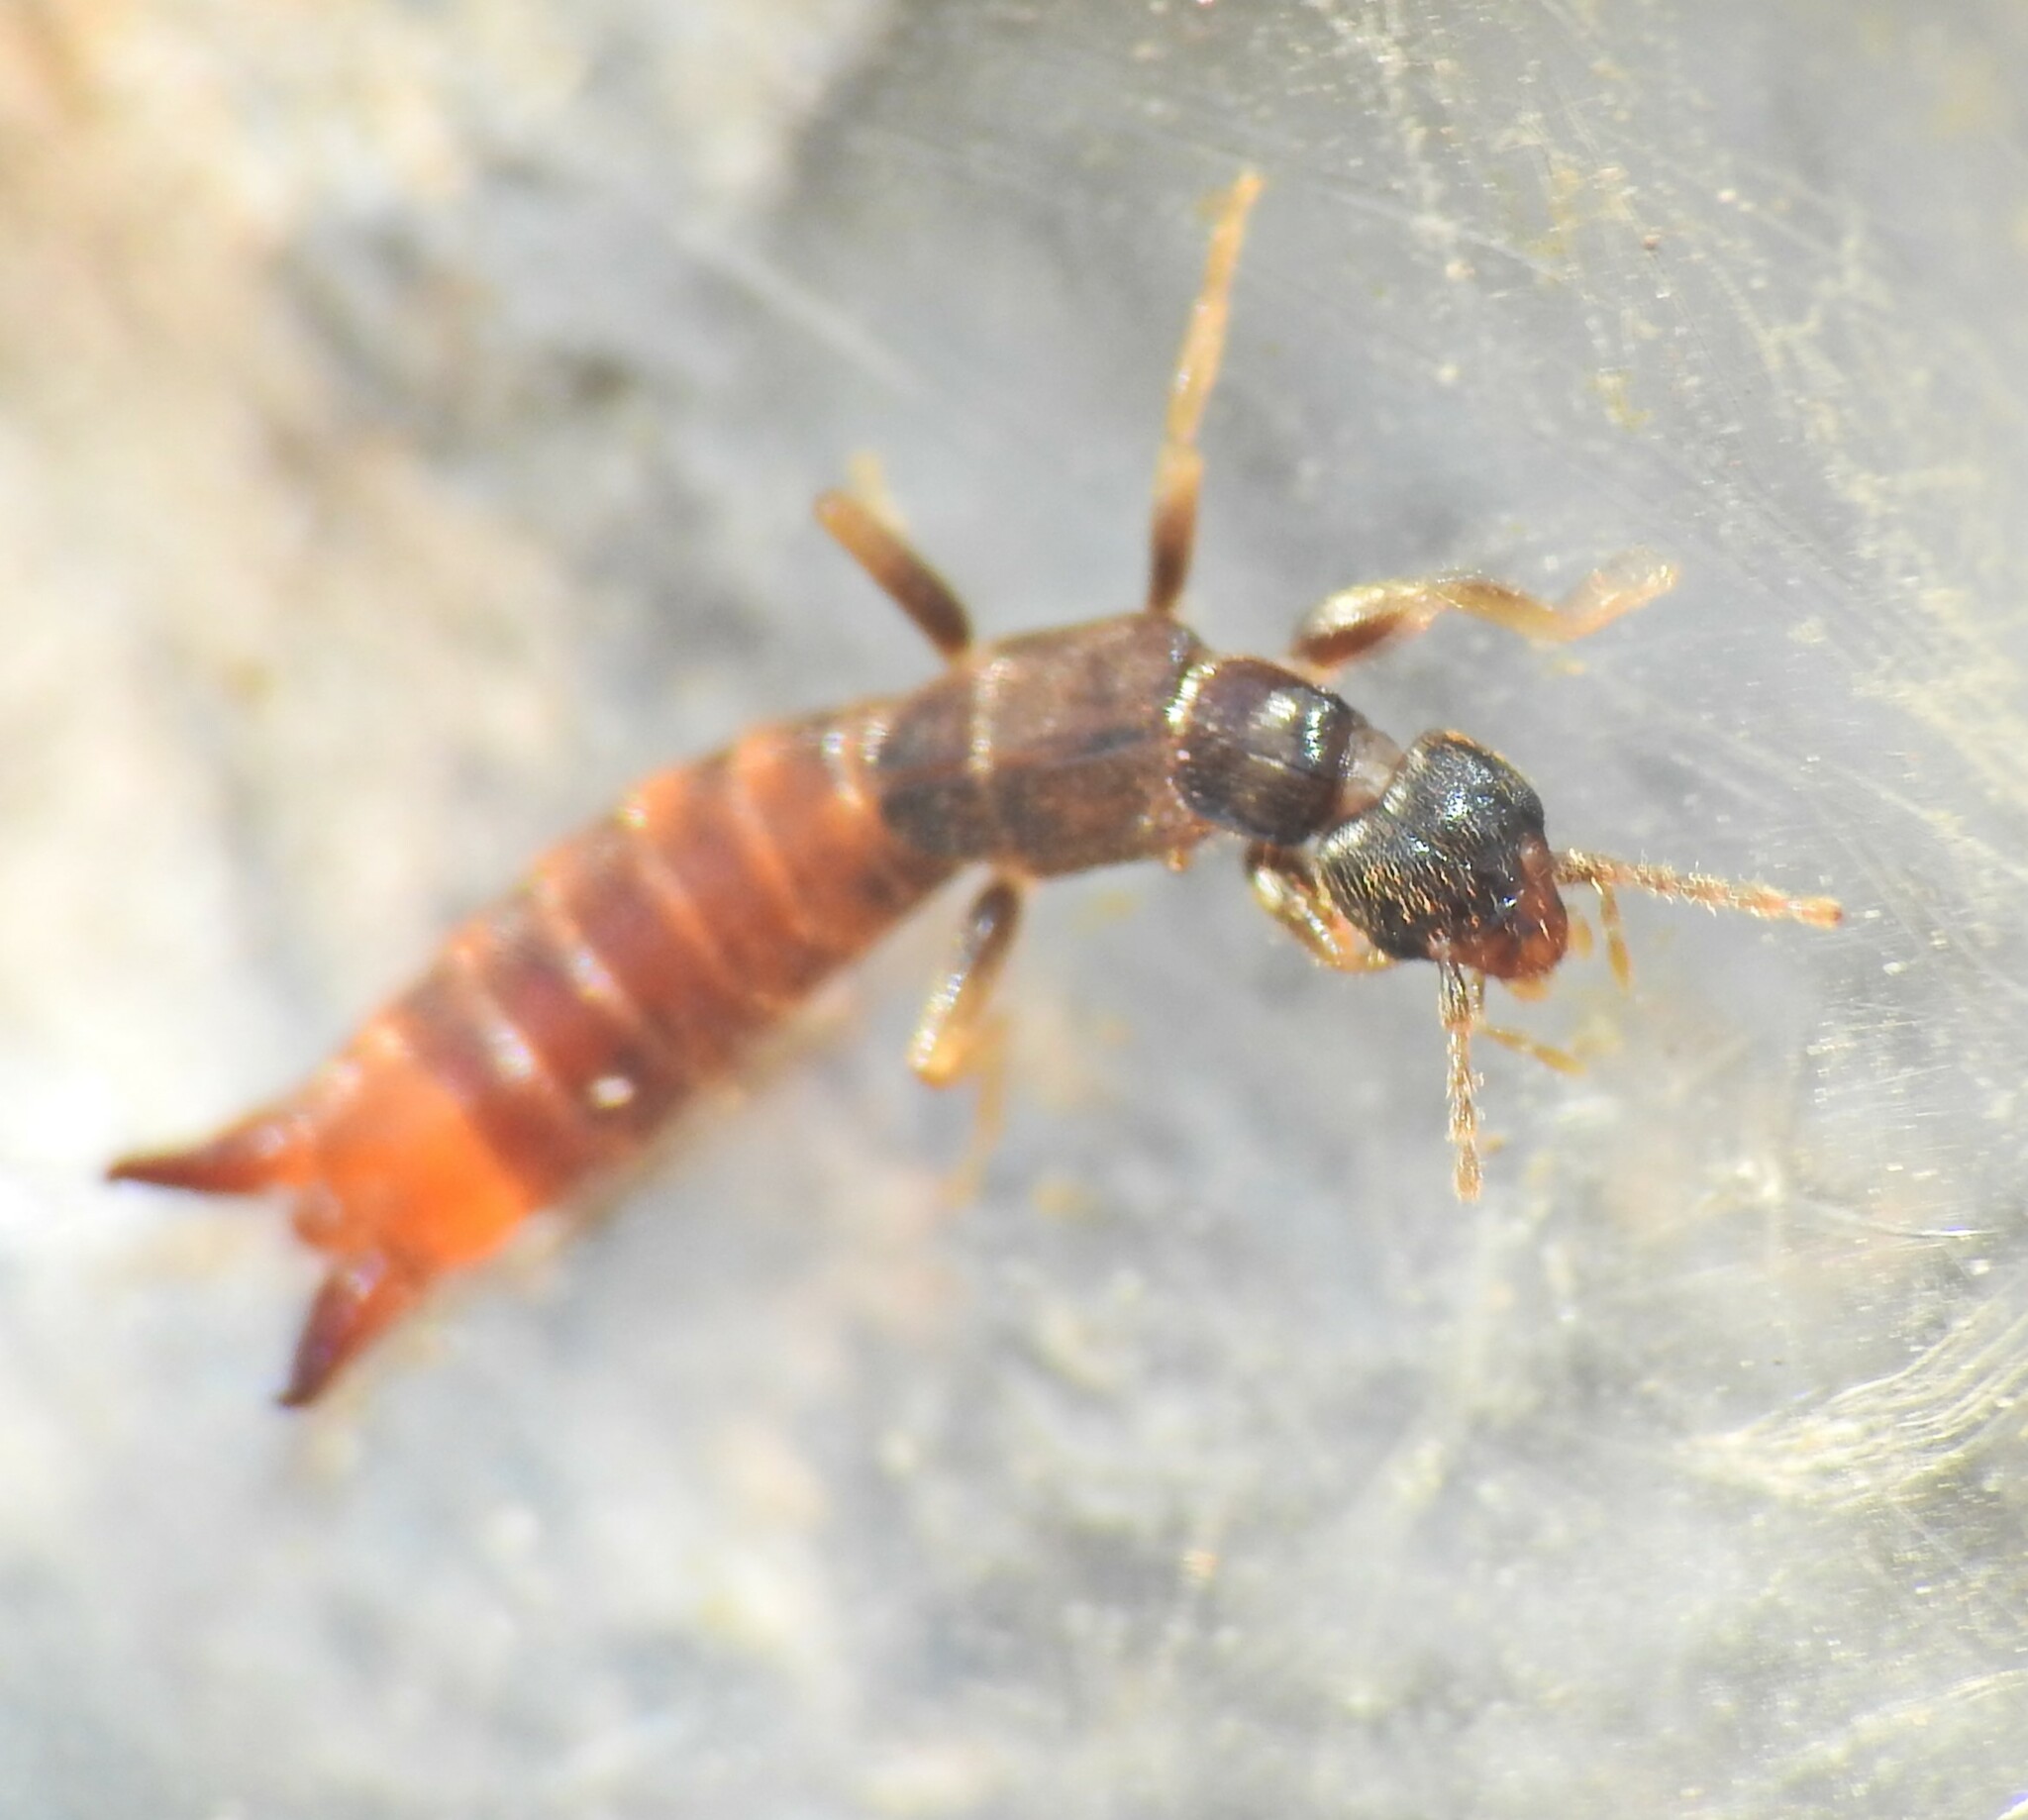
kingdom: Animalia
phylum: Arthropoda
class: Insecta
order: Dermaptera
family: Spongiphoridae
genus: Spirolabia
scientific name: Spirolabia pilicornis
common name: Earwig
